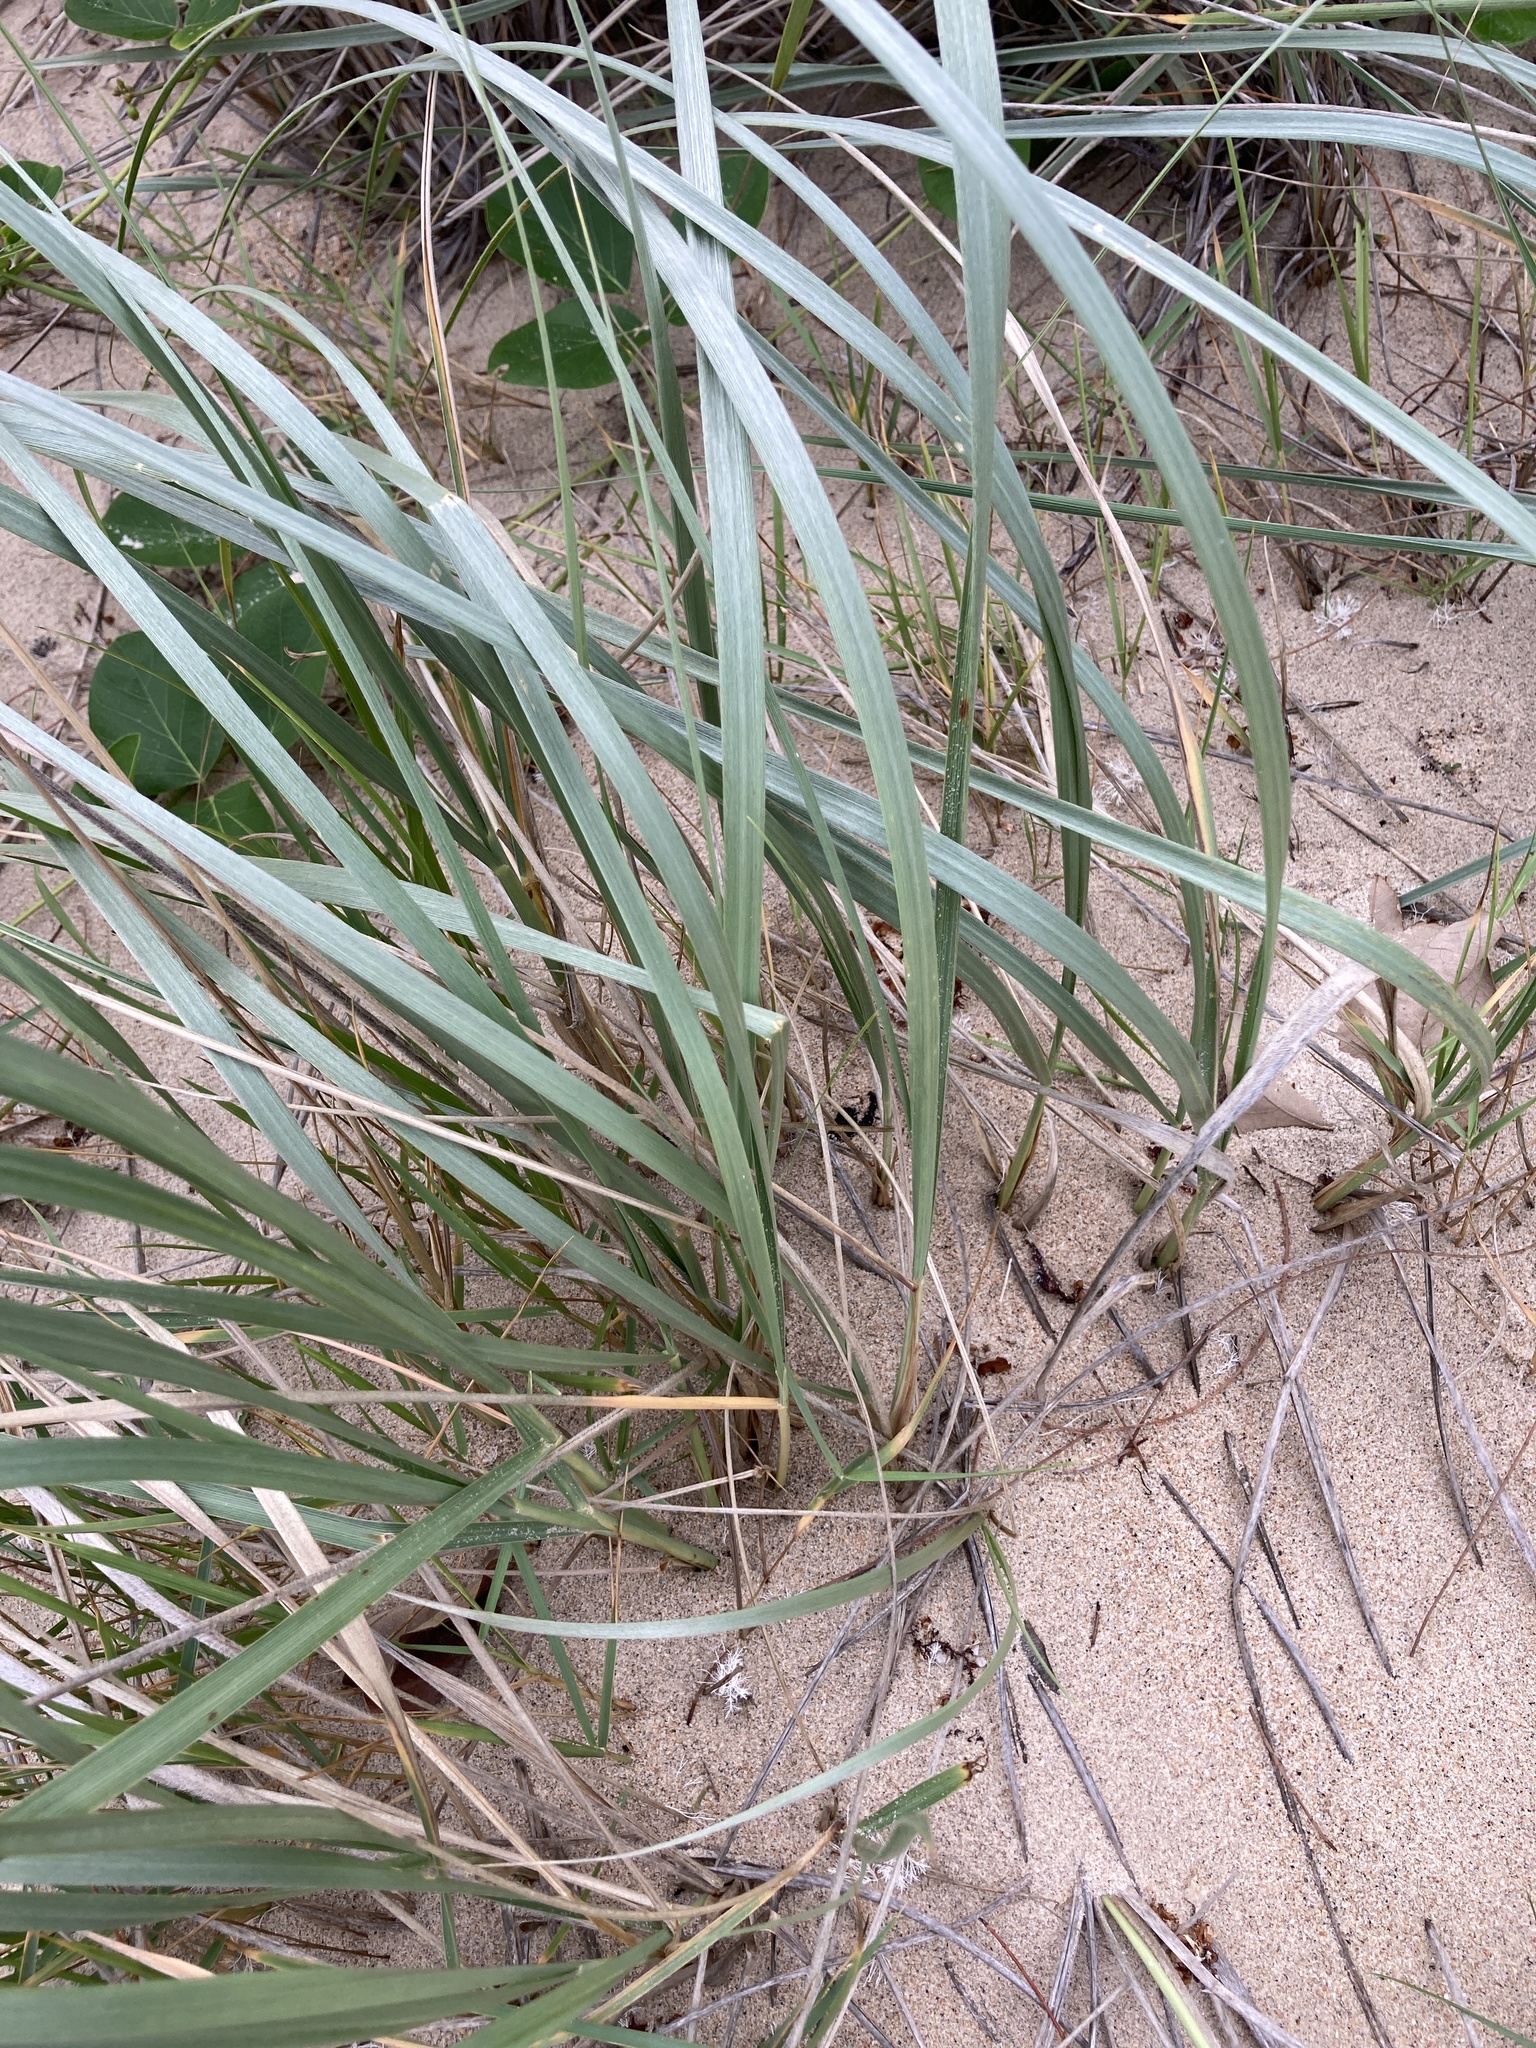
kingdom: Plantae
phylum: Tracheophyta
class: Liliopsida
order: Poales
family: Poaceae
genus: Spinifex
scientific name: Spinifex sericeus
